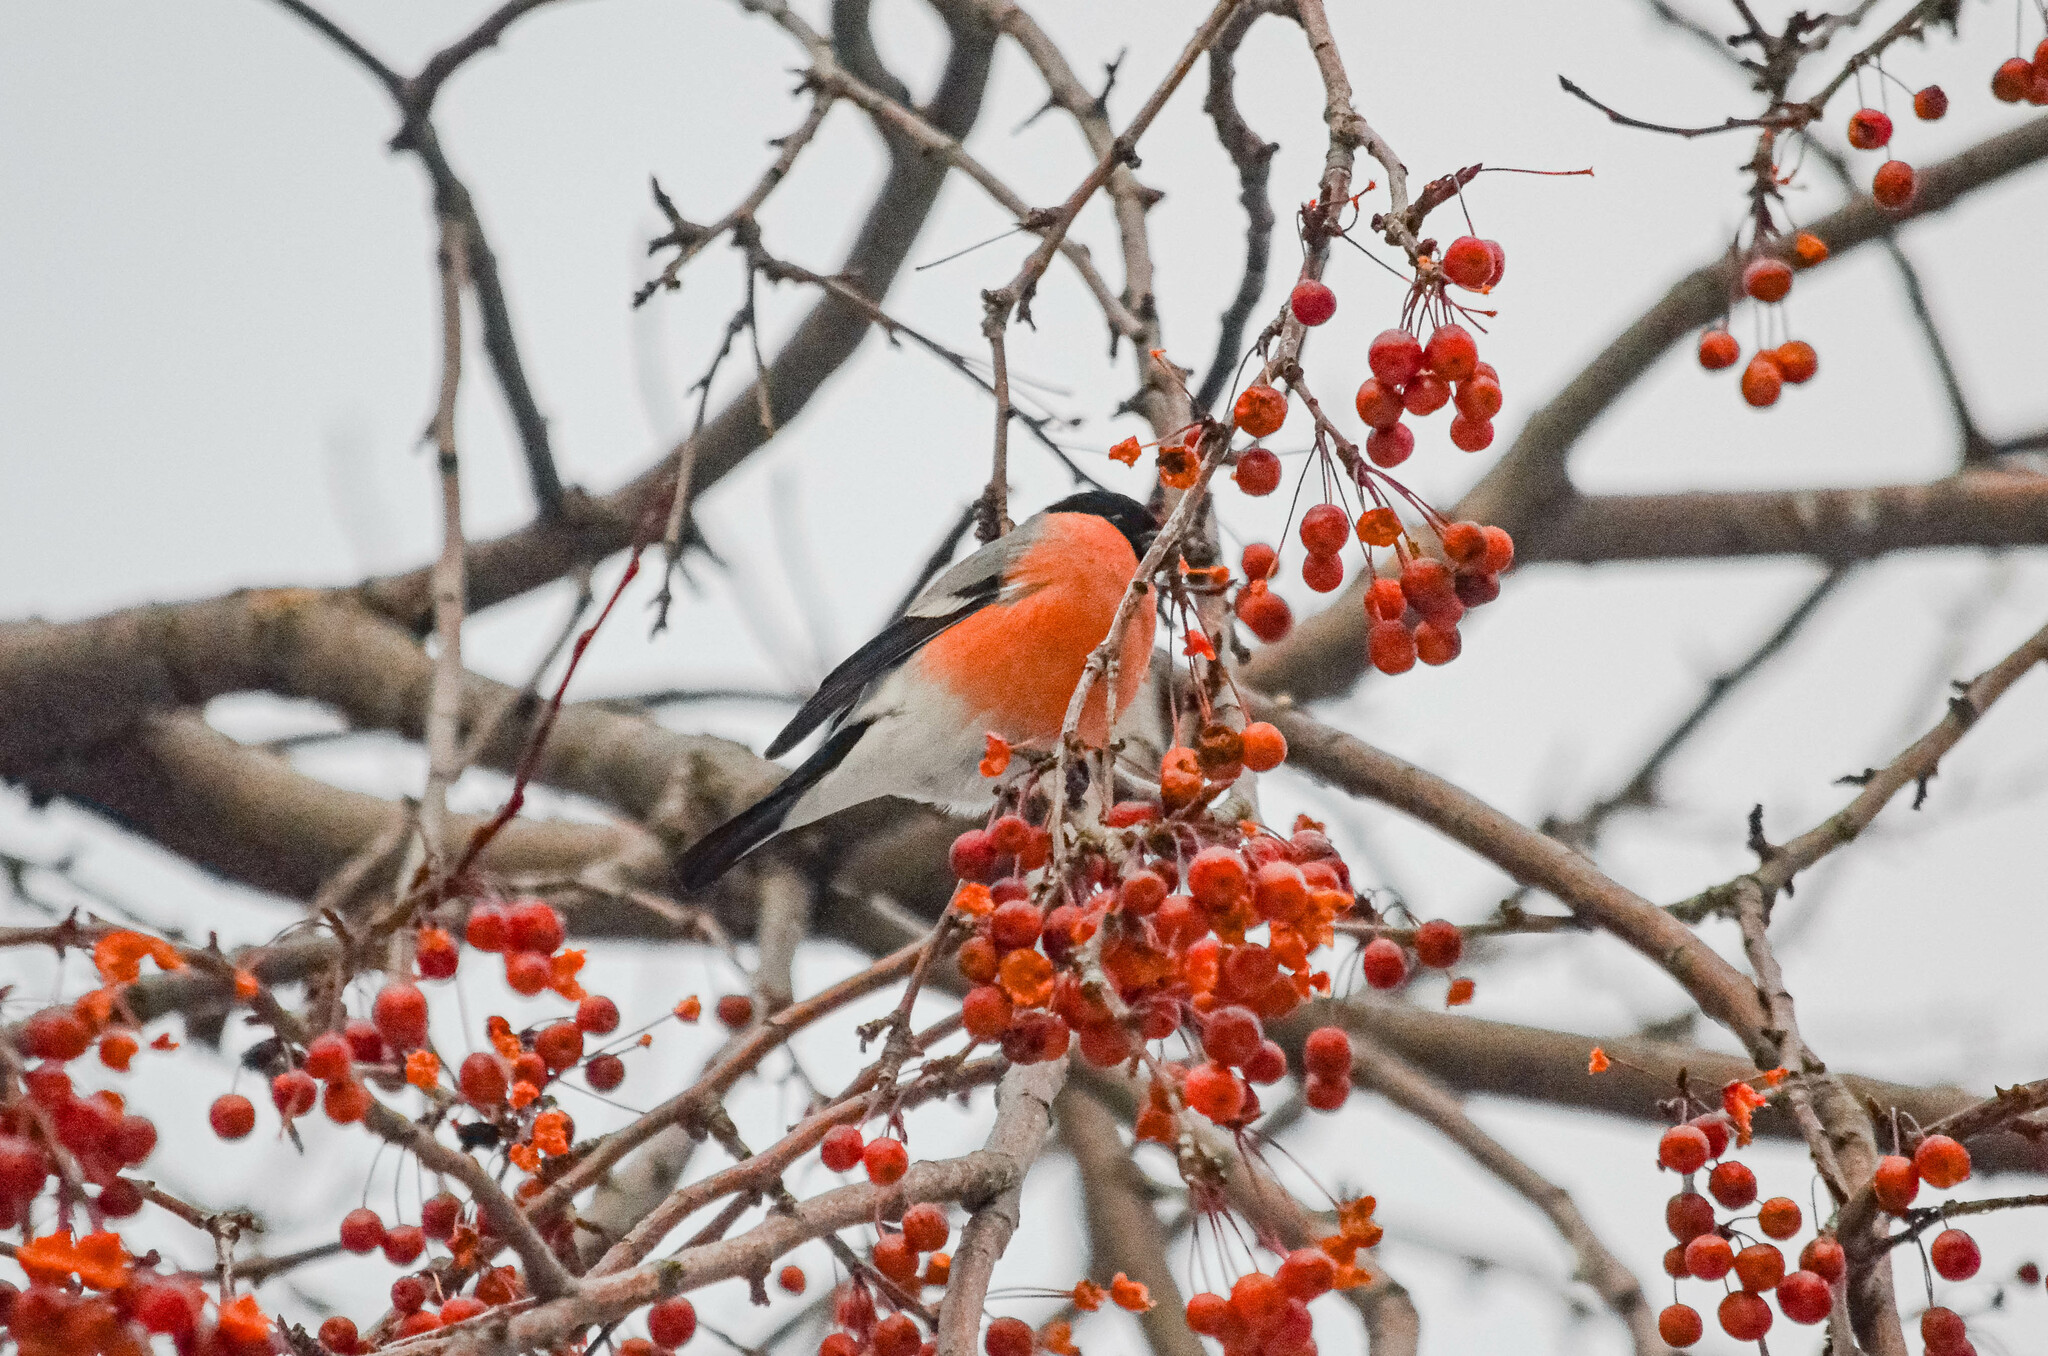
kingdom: Animalia
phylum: Chordata
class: Aves
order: Passeriformes
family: Fringillidae
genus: Pyrrhula
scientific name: Pyrrhula pyrrhula
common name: Eurasian bullfinch
